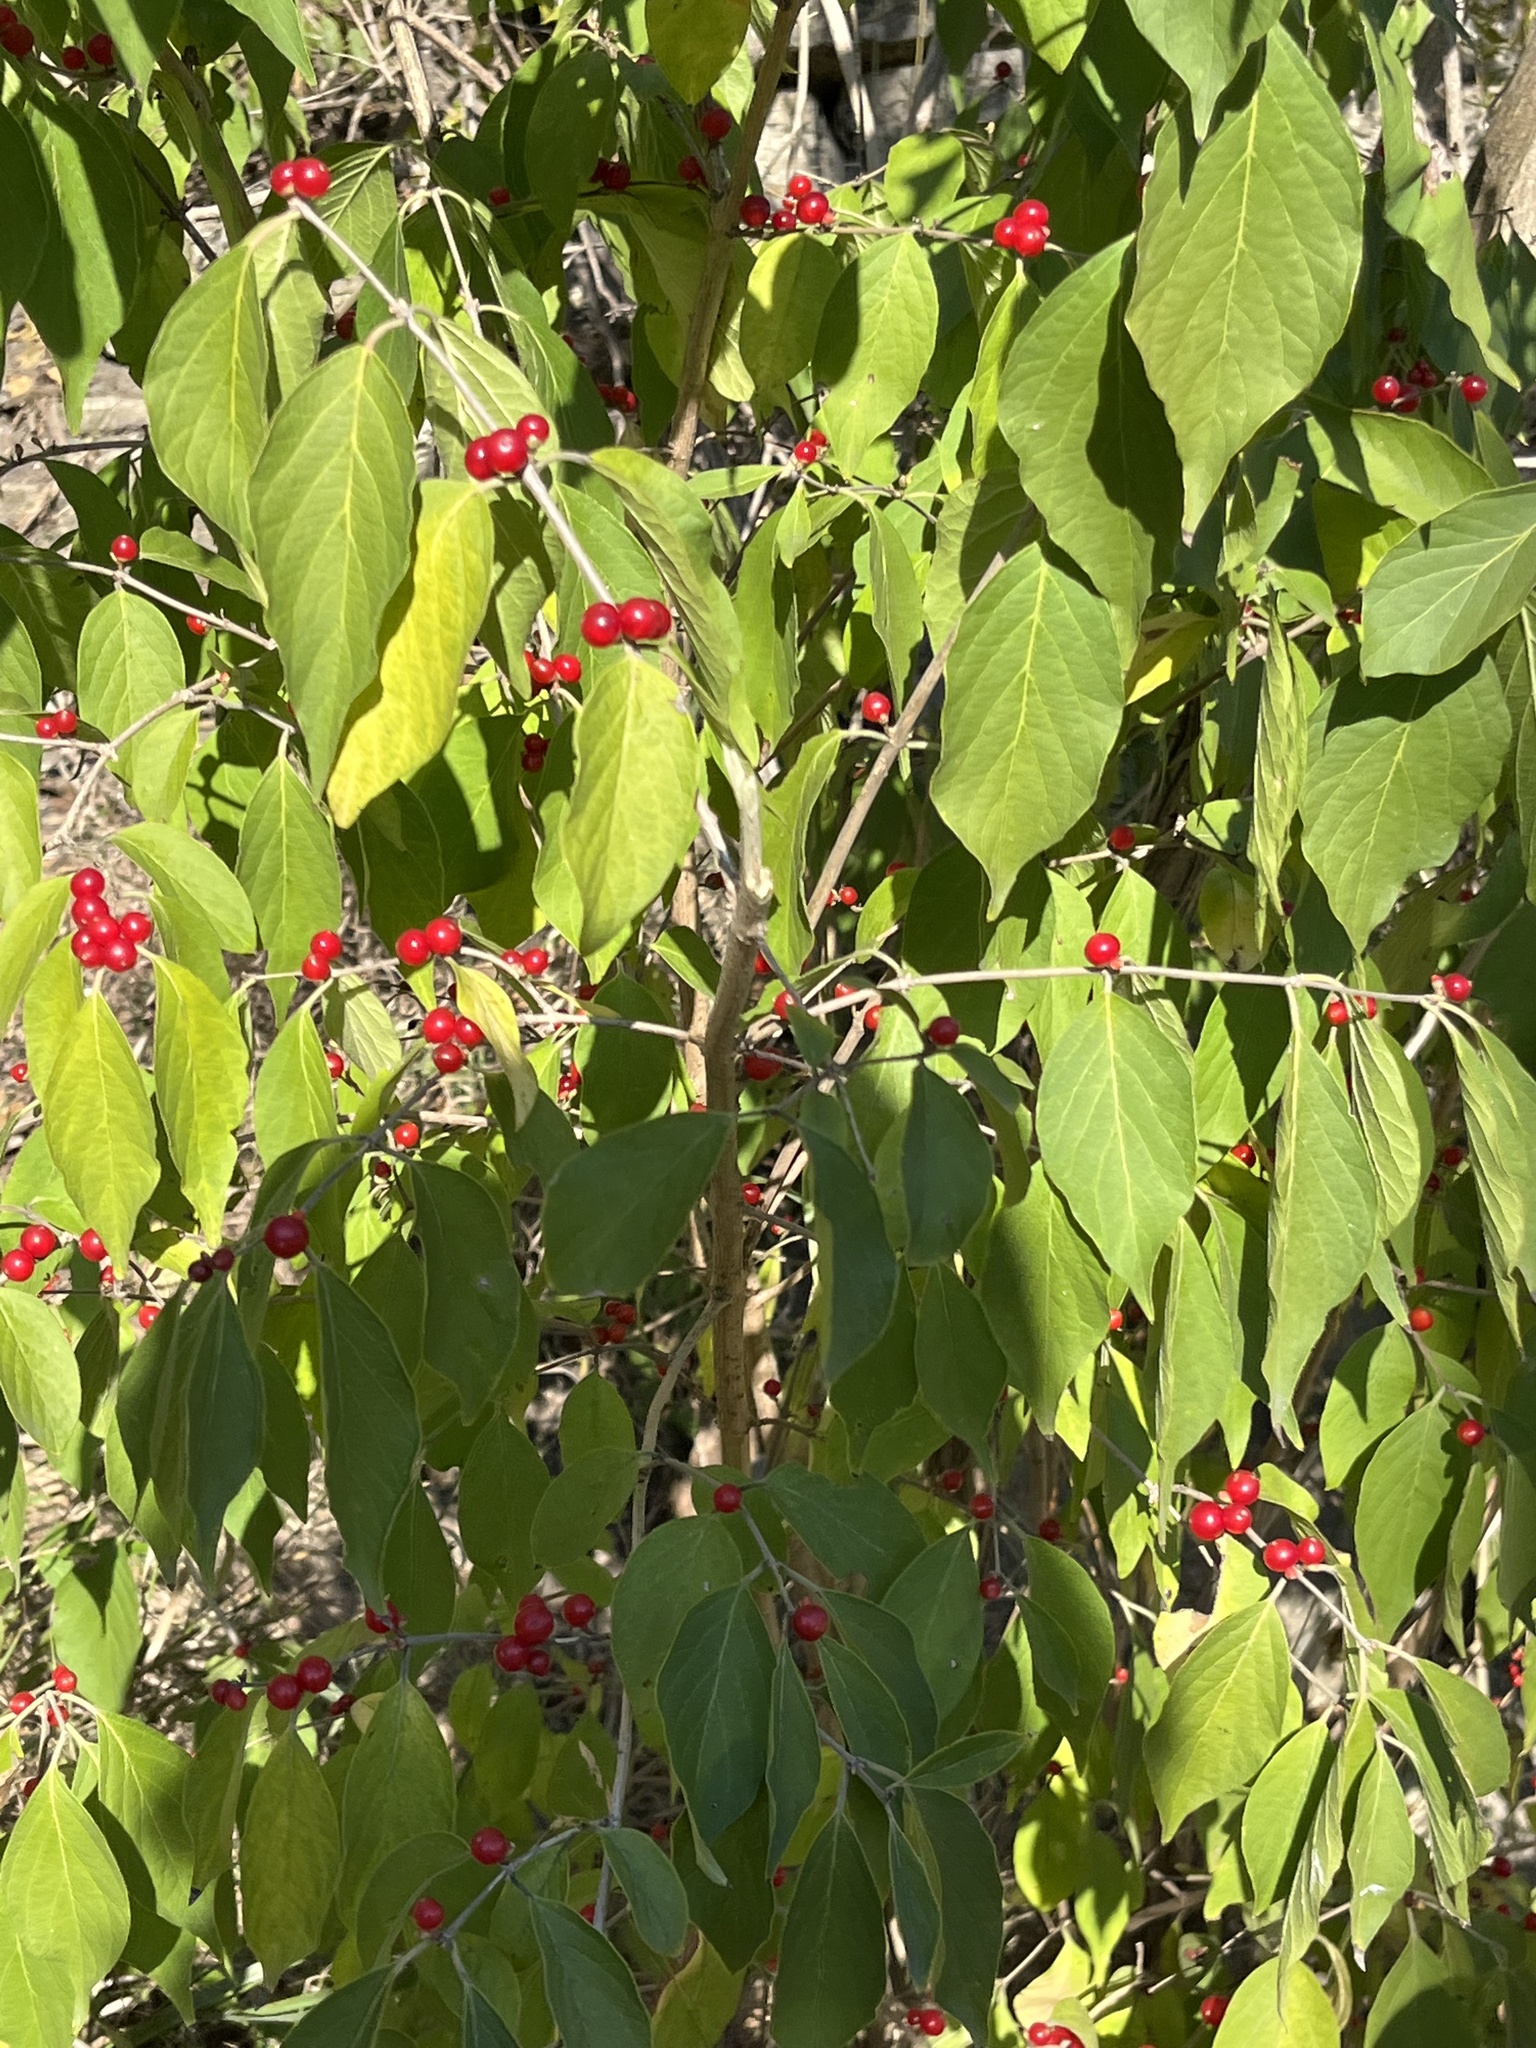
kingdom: Plantae
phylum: Tracheophyta
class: Magnoliopsida
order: Dipsacales
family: Caprifoliaceae
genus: Lonicera
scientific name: Lonicera maackii
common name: Amur honeysuckle
